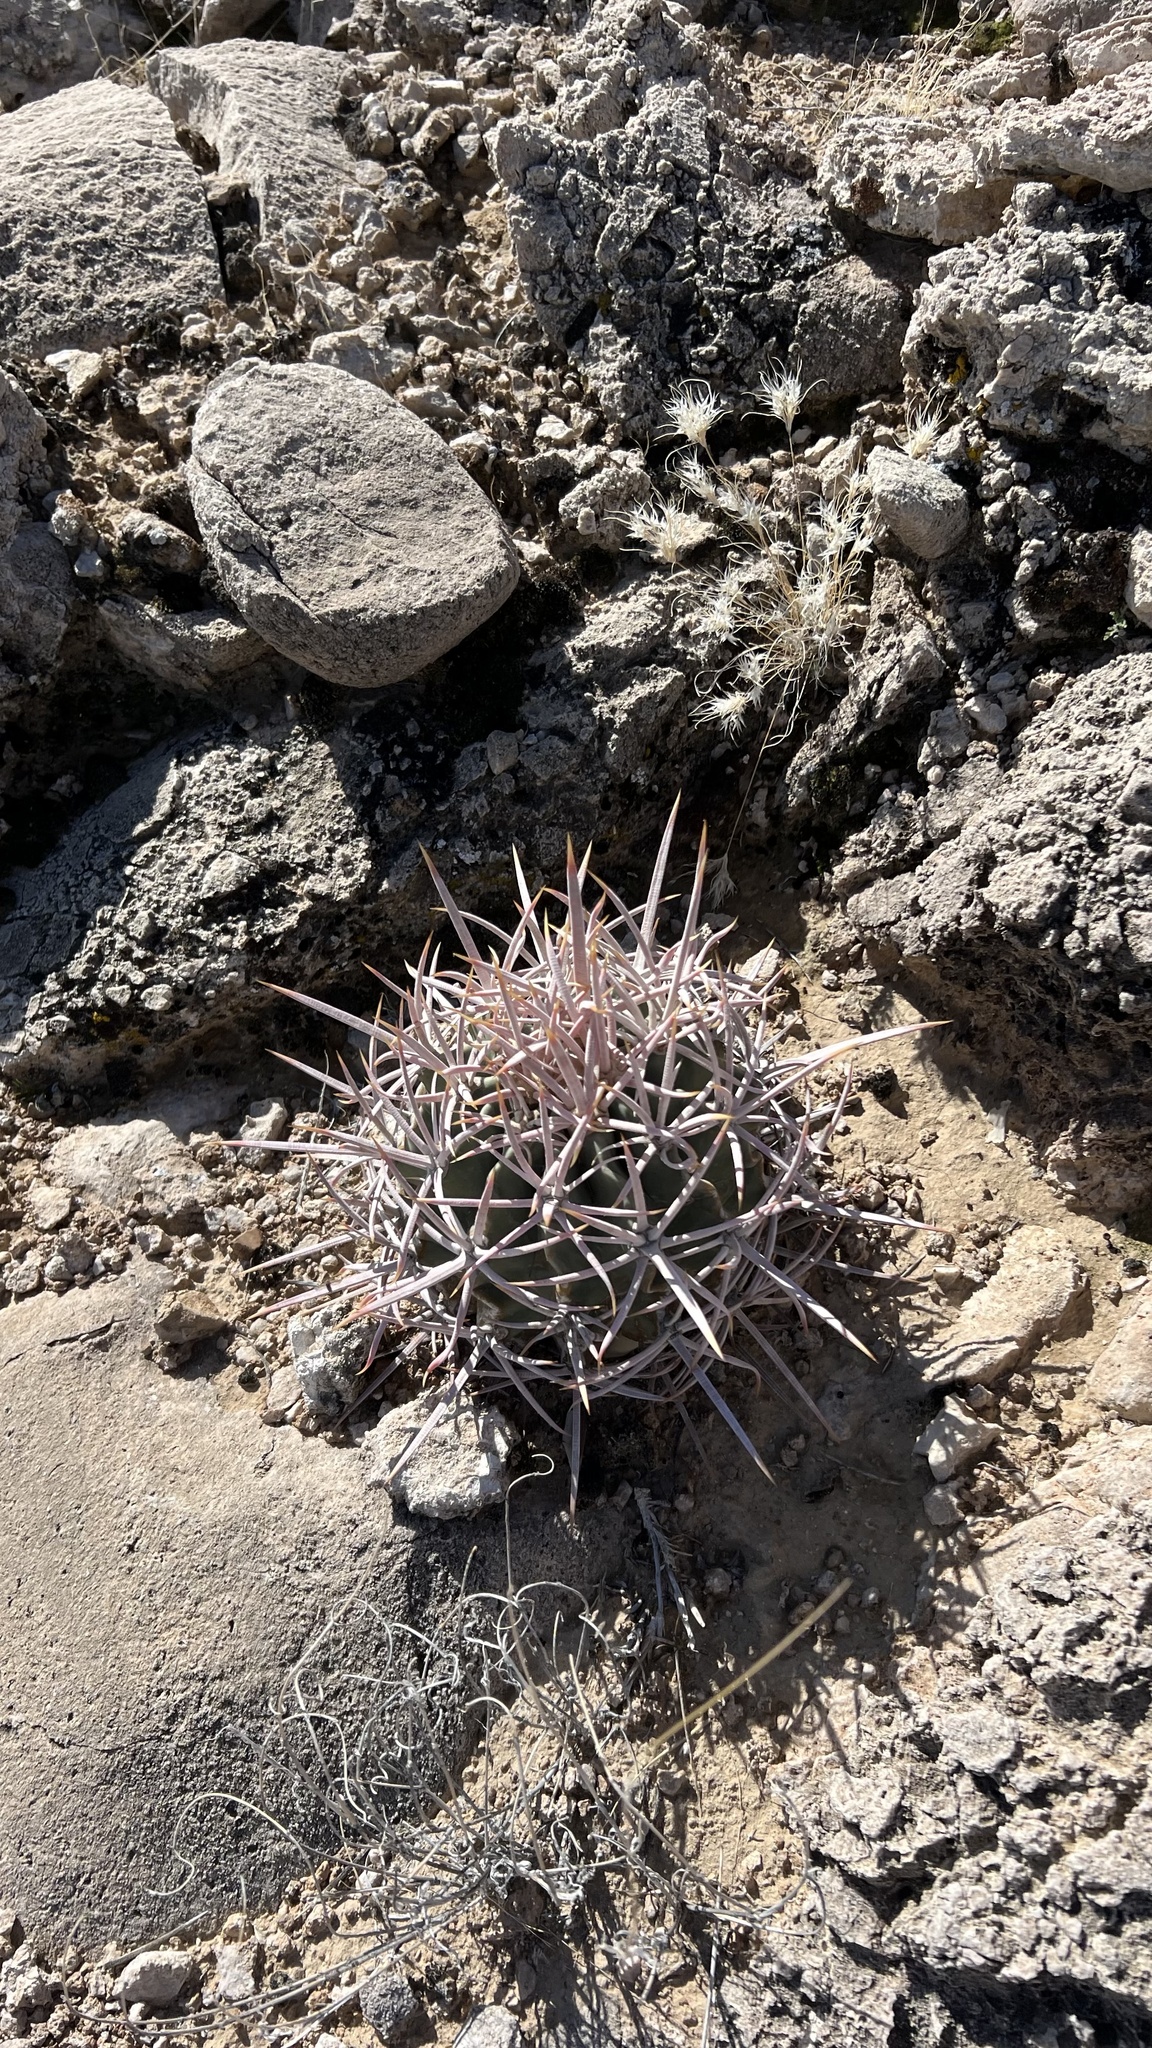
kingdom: Plantae
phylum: Tracheophyta
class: Magnoliopsida
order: Caryophyllales
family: Cactaceae
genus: Echinocactus
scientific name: Echinocactus polycephalus
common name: Cottontop cactus
